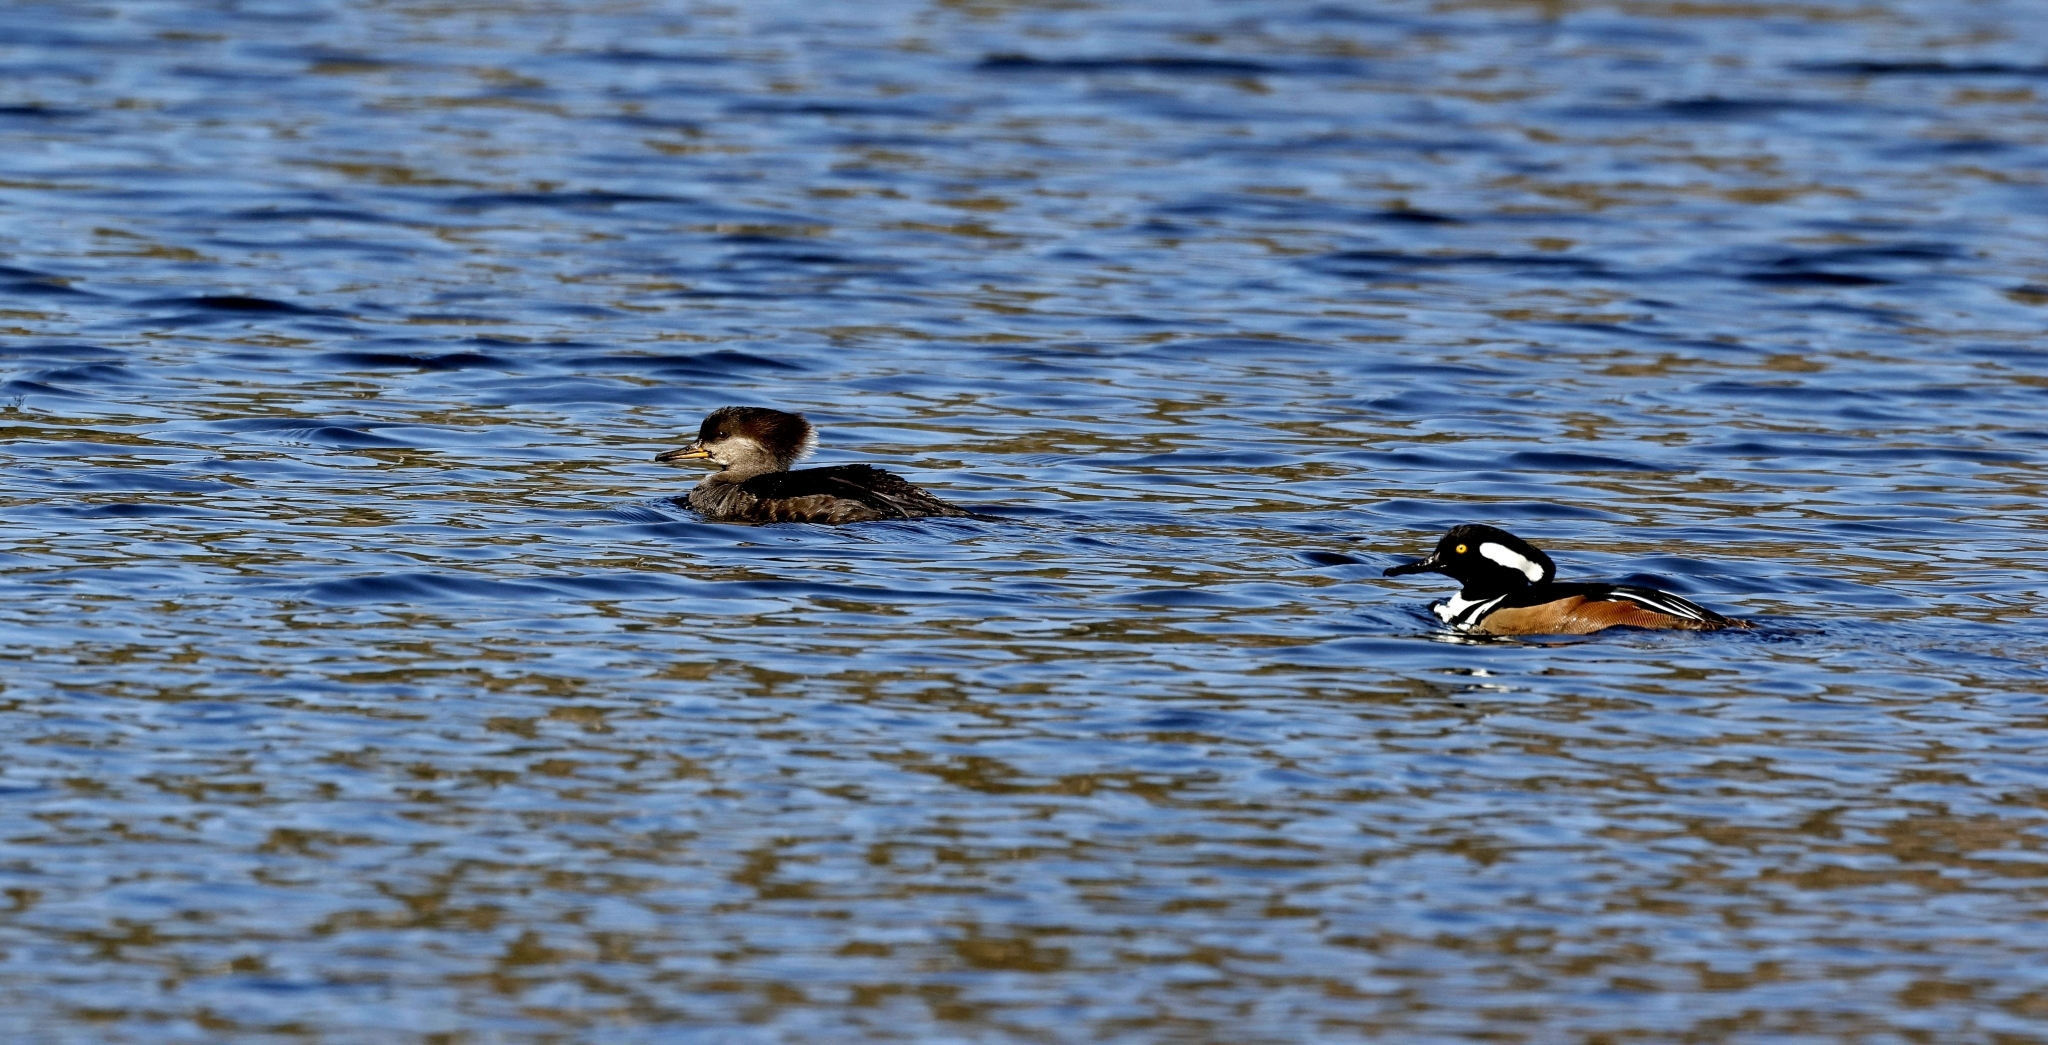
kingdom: Animalia
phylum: Chordata
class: Aves
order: Anseriformes
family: Anatidae
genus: Lophodytes
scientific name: Lophodytes cucullatus
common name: Hooded merganser
